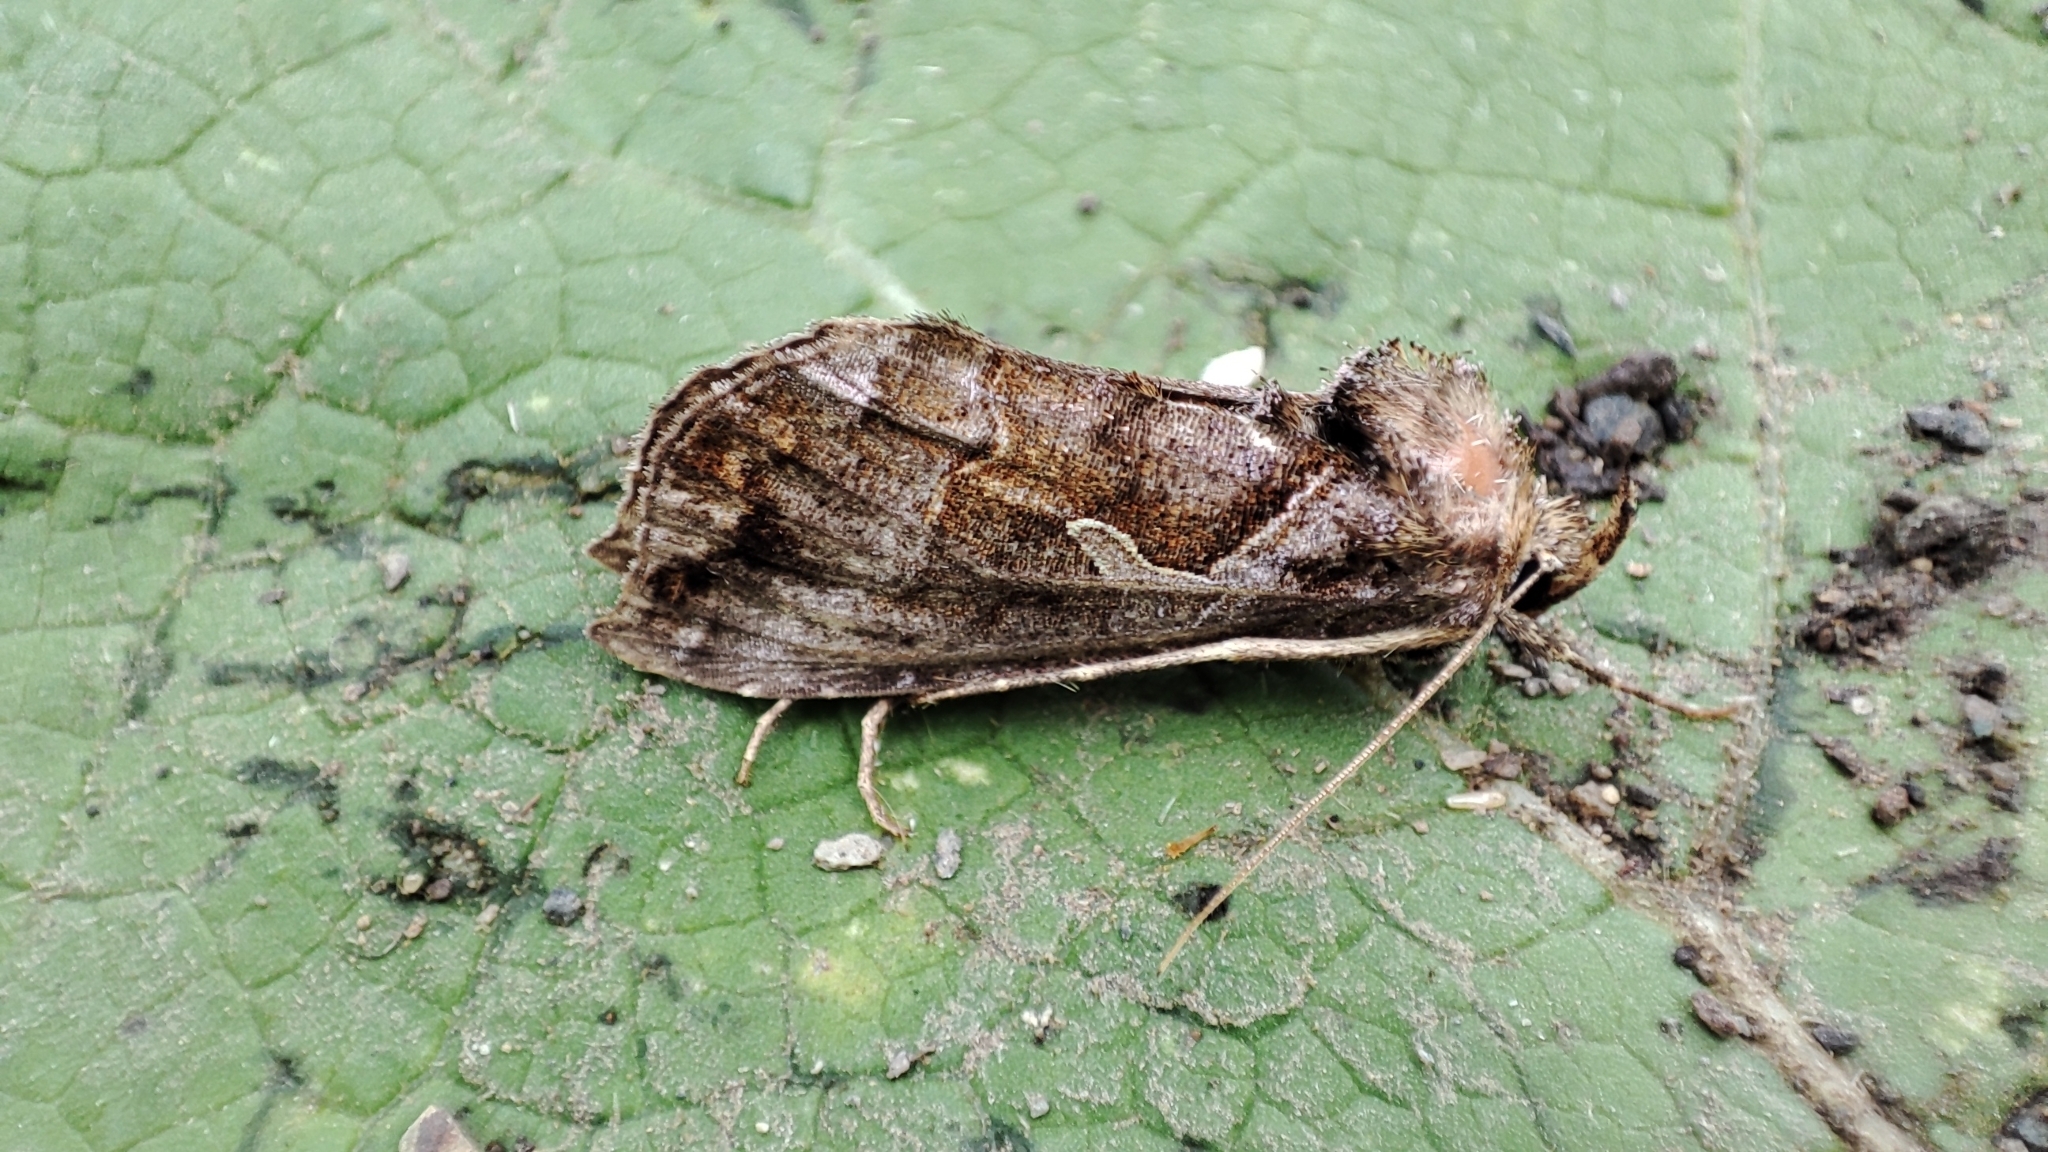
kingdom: Animalia
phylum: Arthropoda
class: Insecta
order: Lepidoptera
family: Noctuidae
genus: Polychrysia
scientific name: Polychrysia splendida
